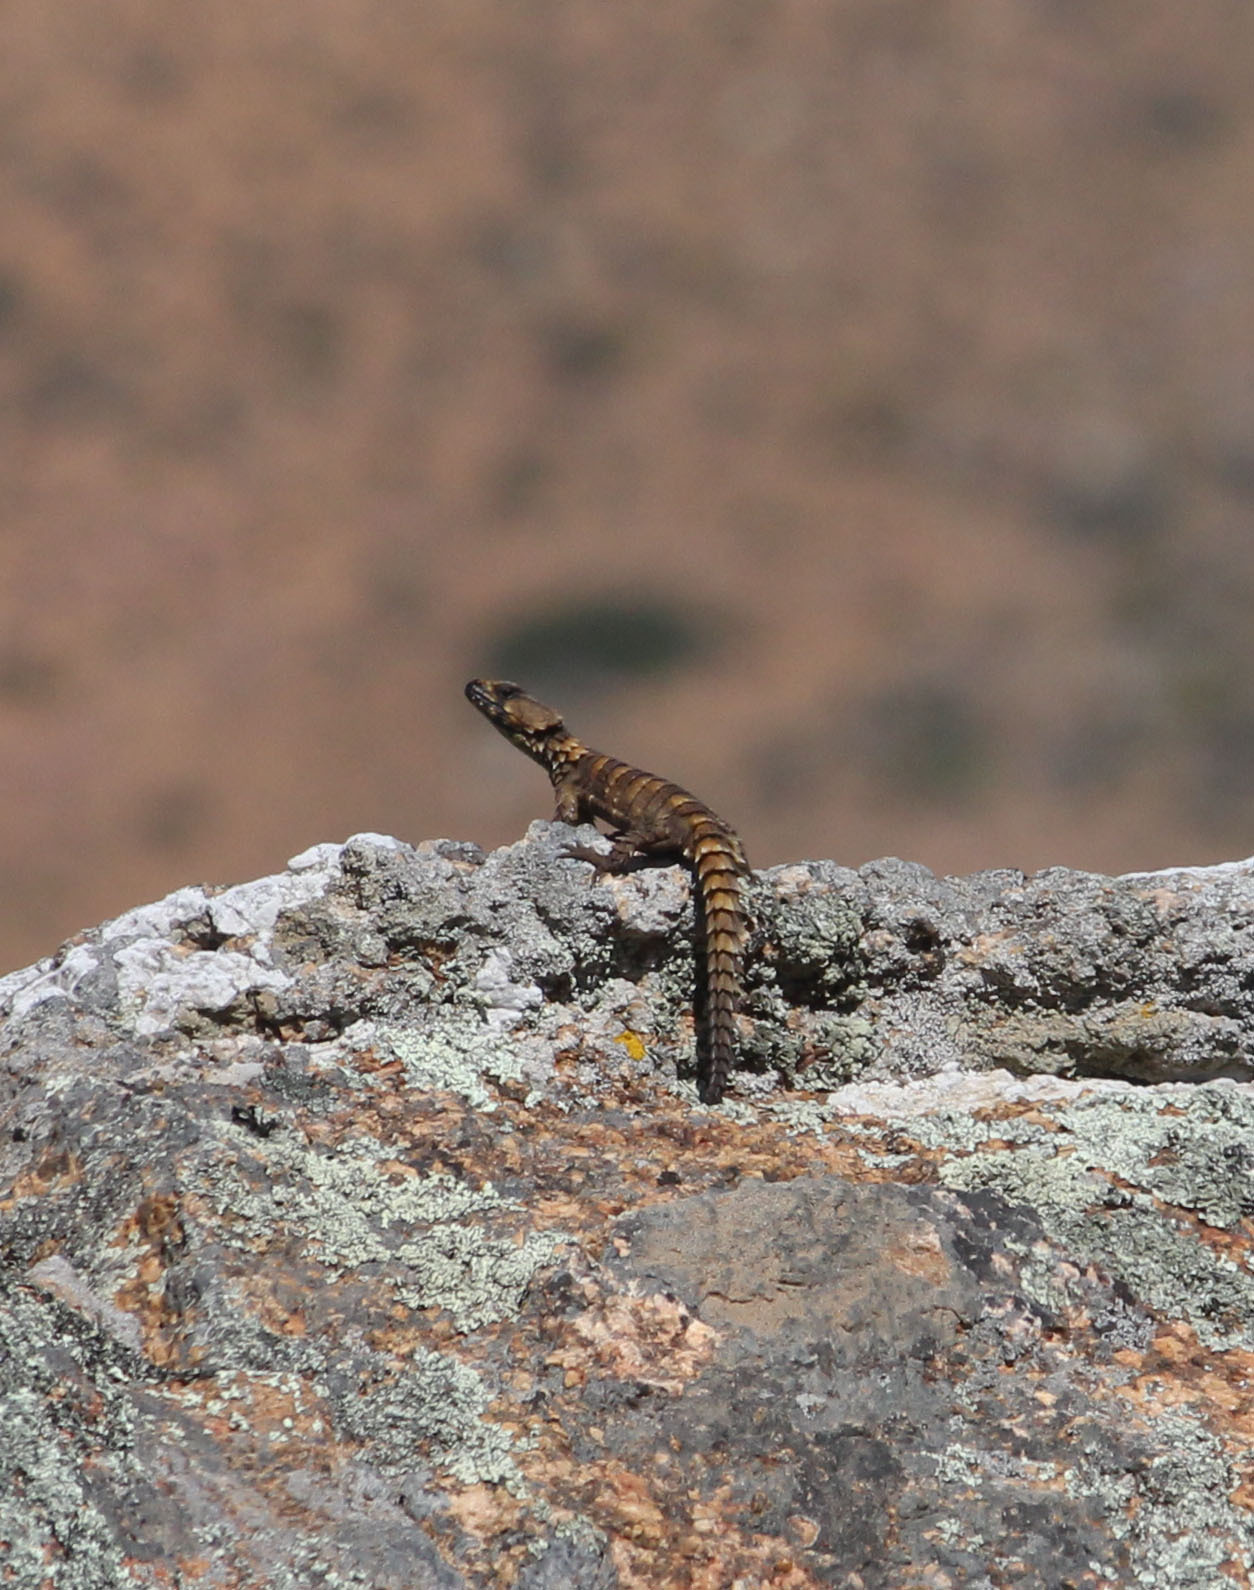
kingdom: Animalia
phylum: Chordata
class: Squamata
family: Cordylidae
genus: Ouroborus
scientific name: Ouroborus cataphractus
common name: Armadillo girdled lizard
